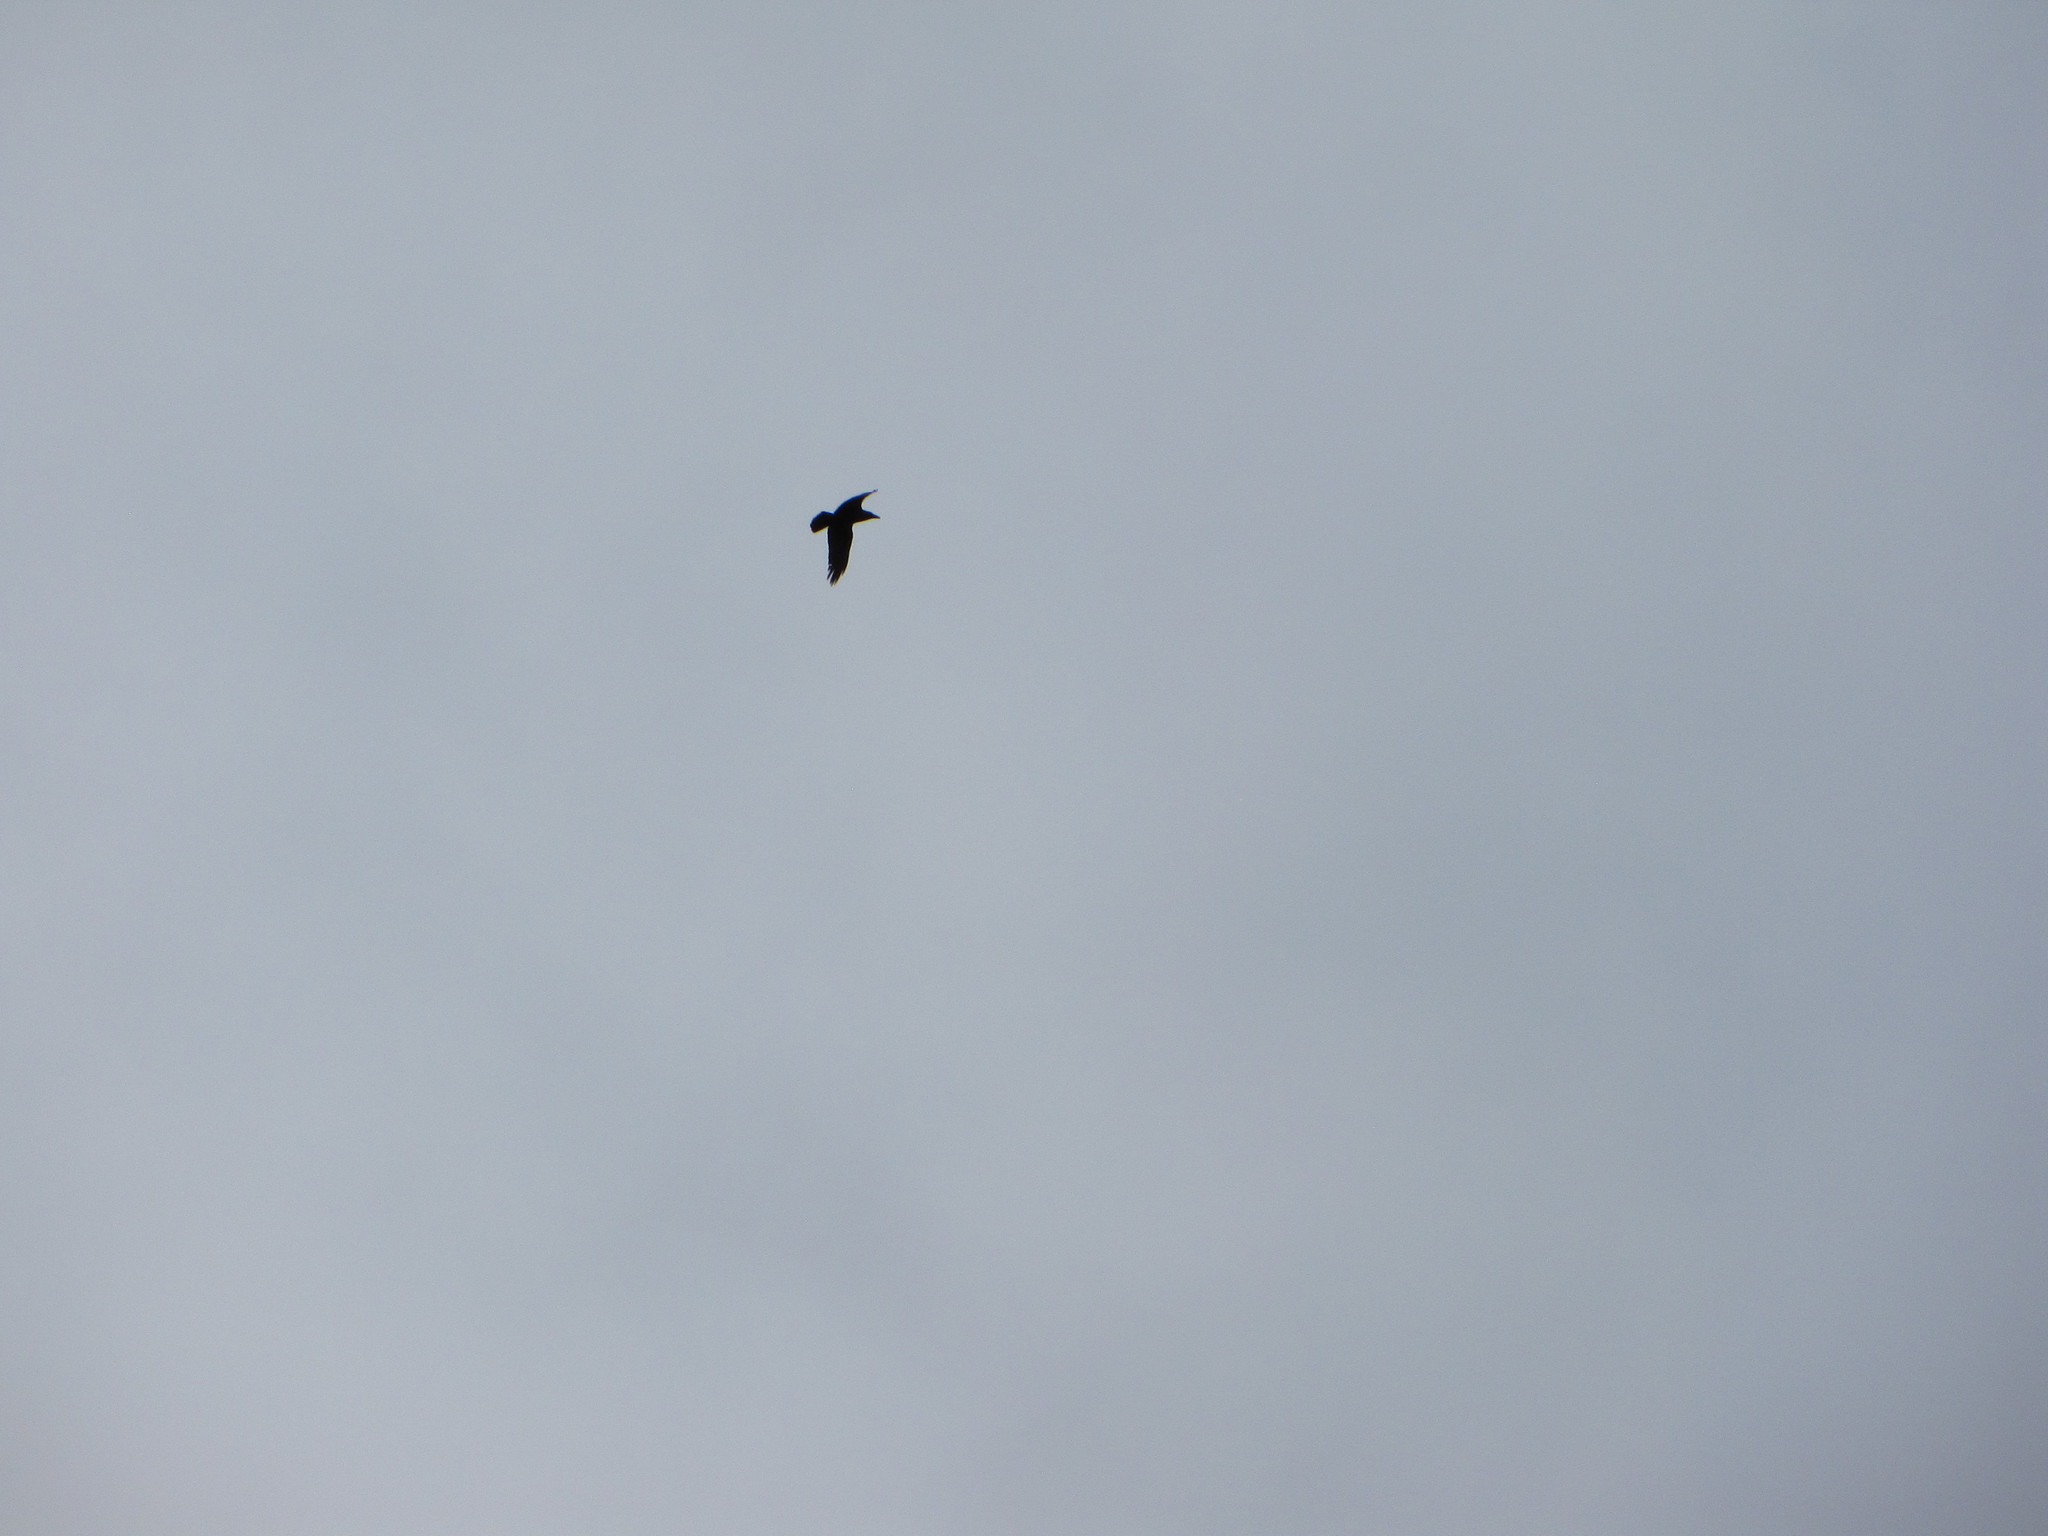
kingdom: Animalia
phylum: Chordata
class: Aves
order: Passeriformes
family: Corvidae
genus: Corvus
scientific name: Corvus corax
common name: Common raven
